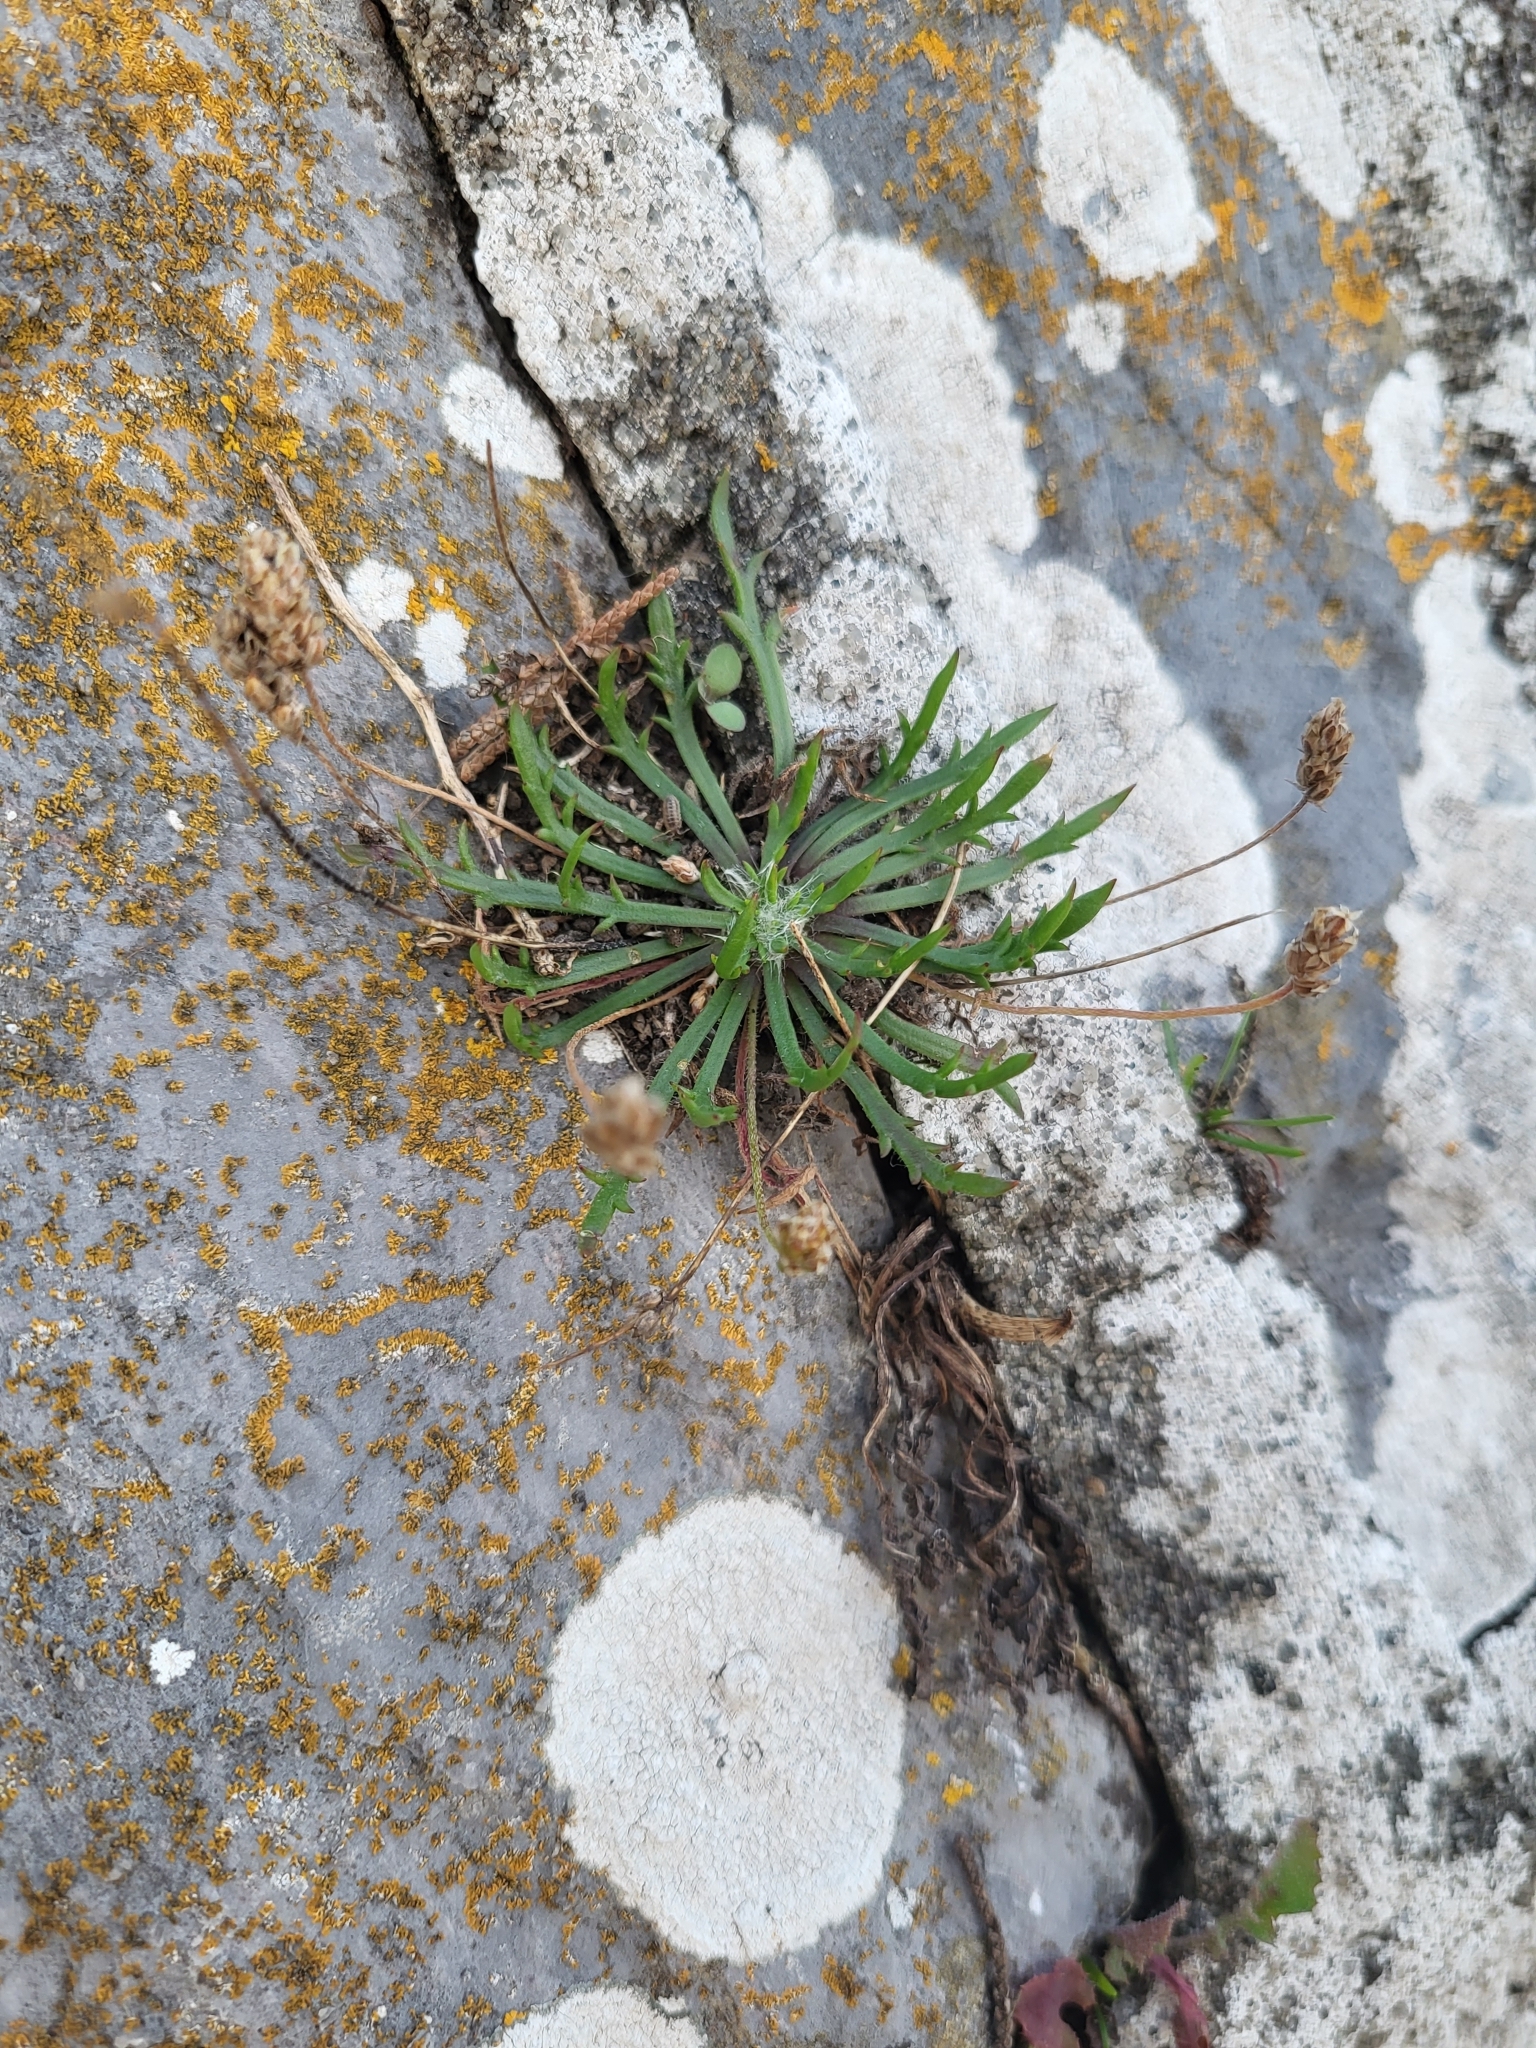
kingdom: Plantae
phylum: Tracheophyta
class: Magnoliopsida
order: Lamiales
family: Plantaginaceae
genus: Plantago
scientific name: Plantago coronopus
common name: Buck's-horn plantain
